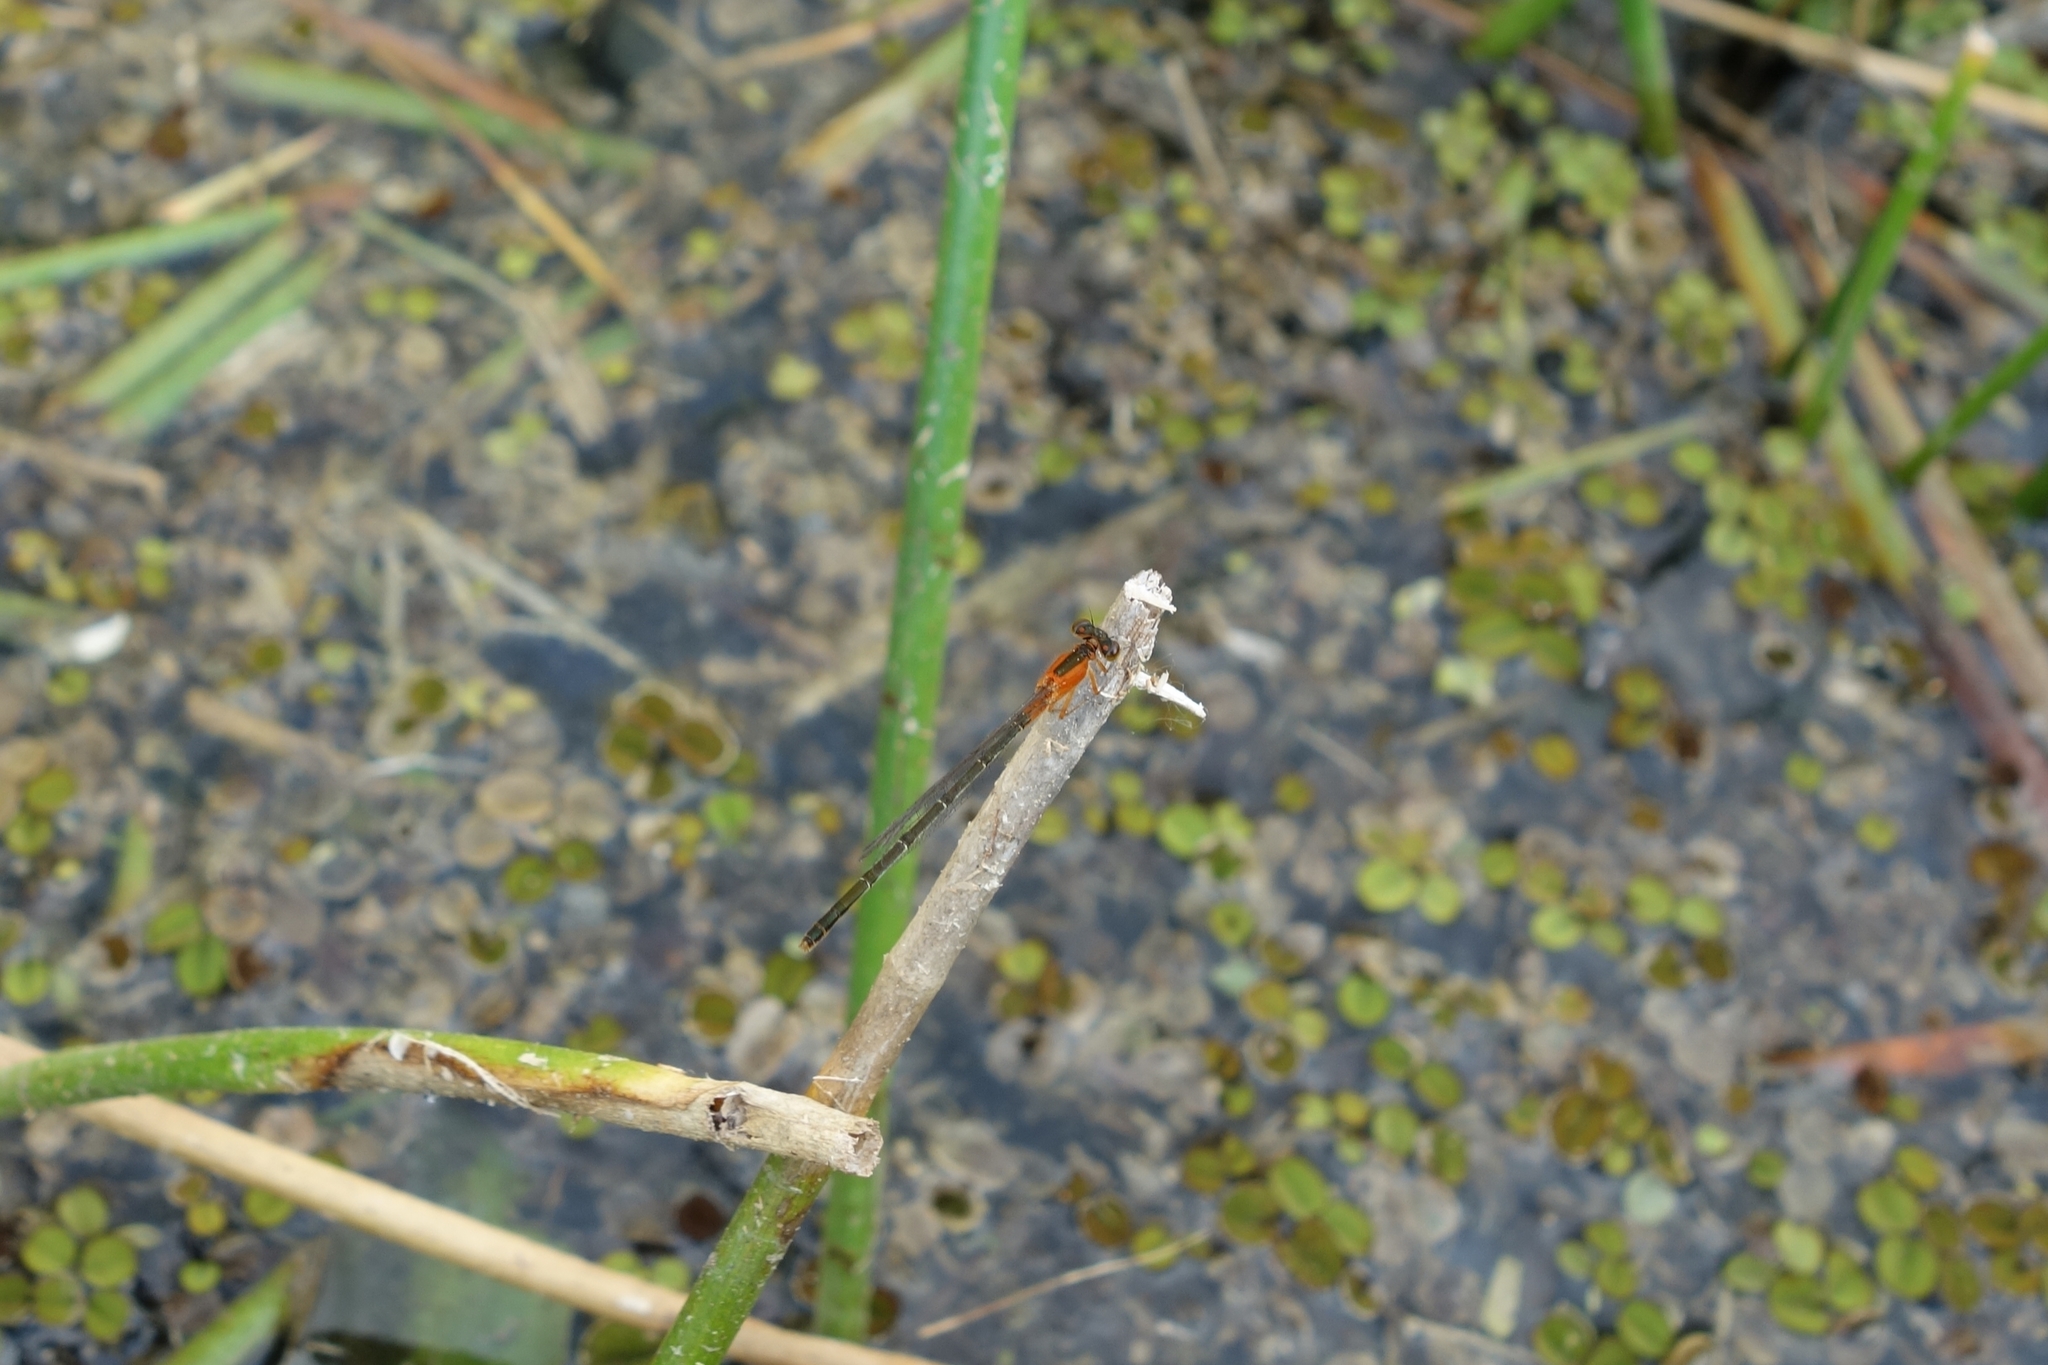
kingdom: Animalia
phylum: Arthropoda
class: Insecta
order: Odonata
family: Coenagrionidae
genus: Ischnura
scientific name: Ischnura ramburii
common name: Rambur's forktail
